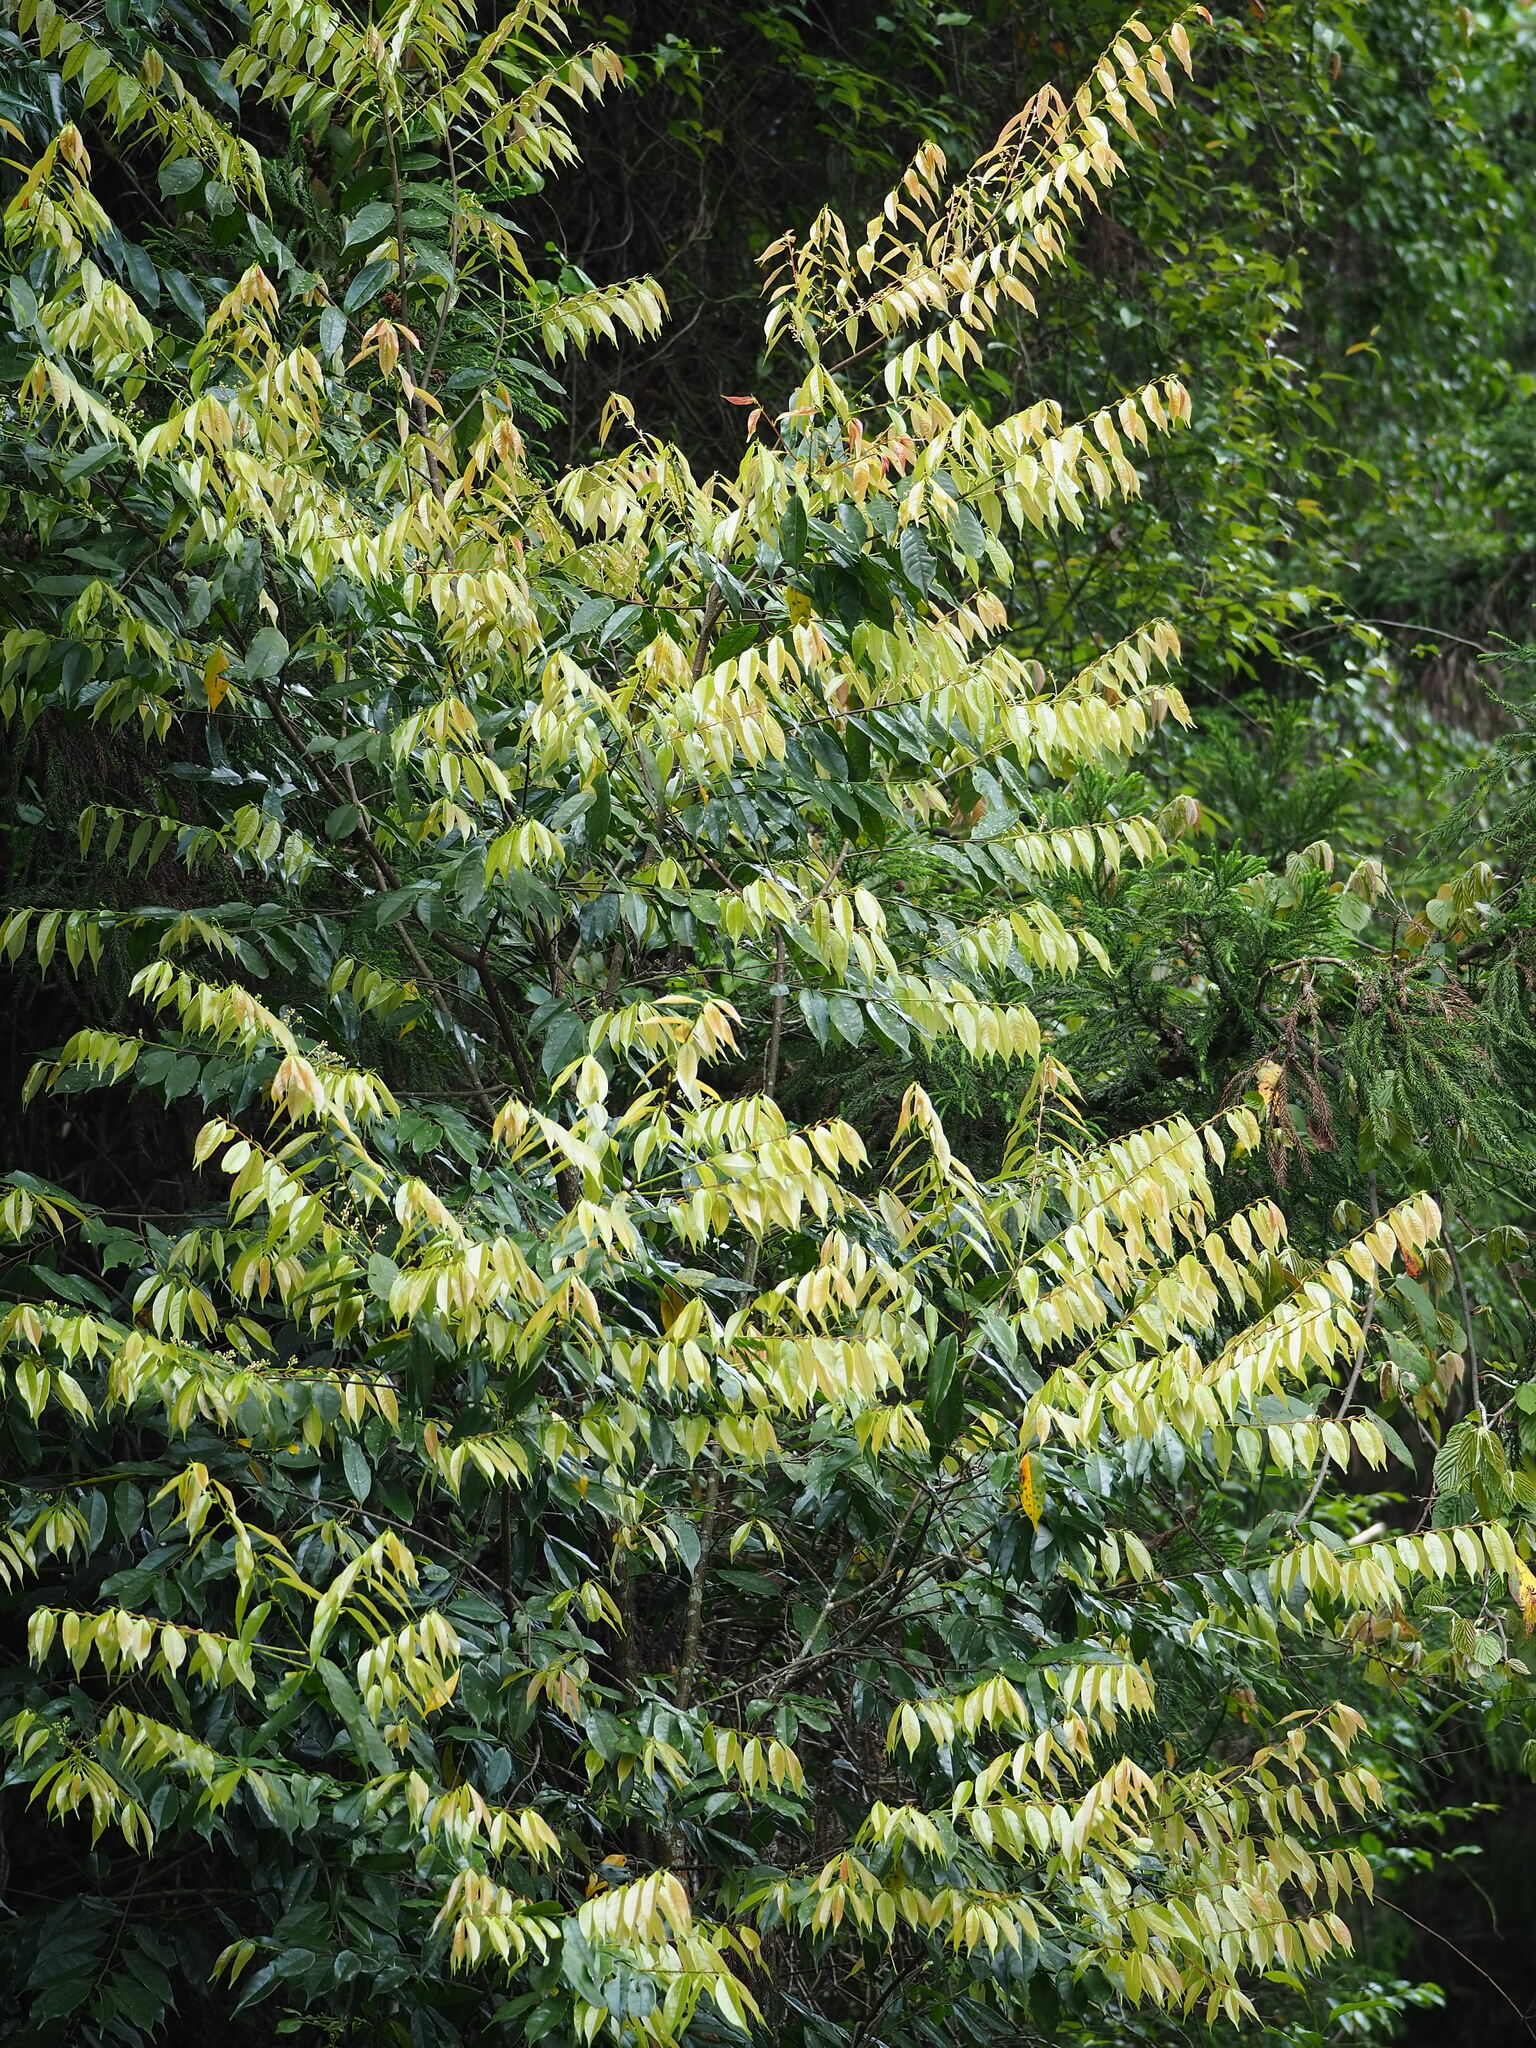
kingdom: Plantae
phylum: Tracheophyta
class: Magnoliopsida
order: Rosales
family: Rosaceae
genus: Prunus
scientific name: Prunus phaeosticta
